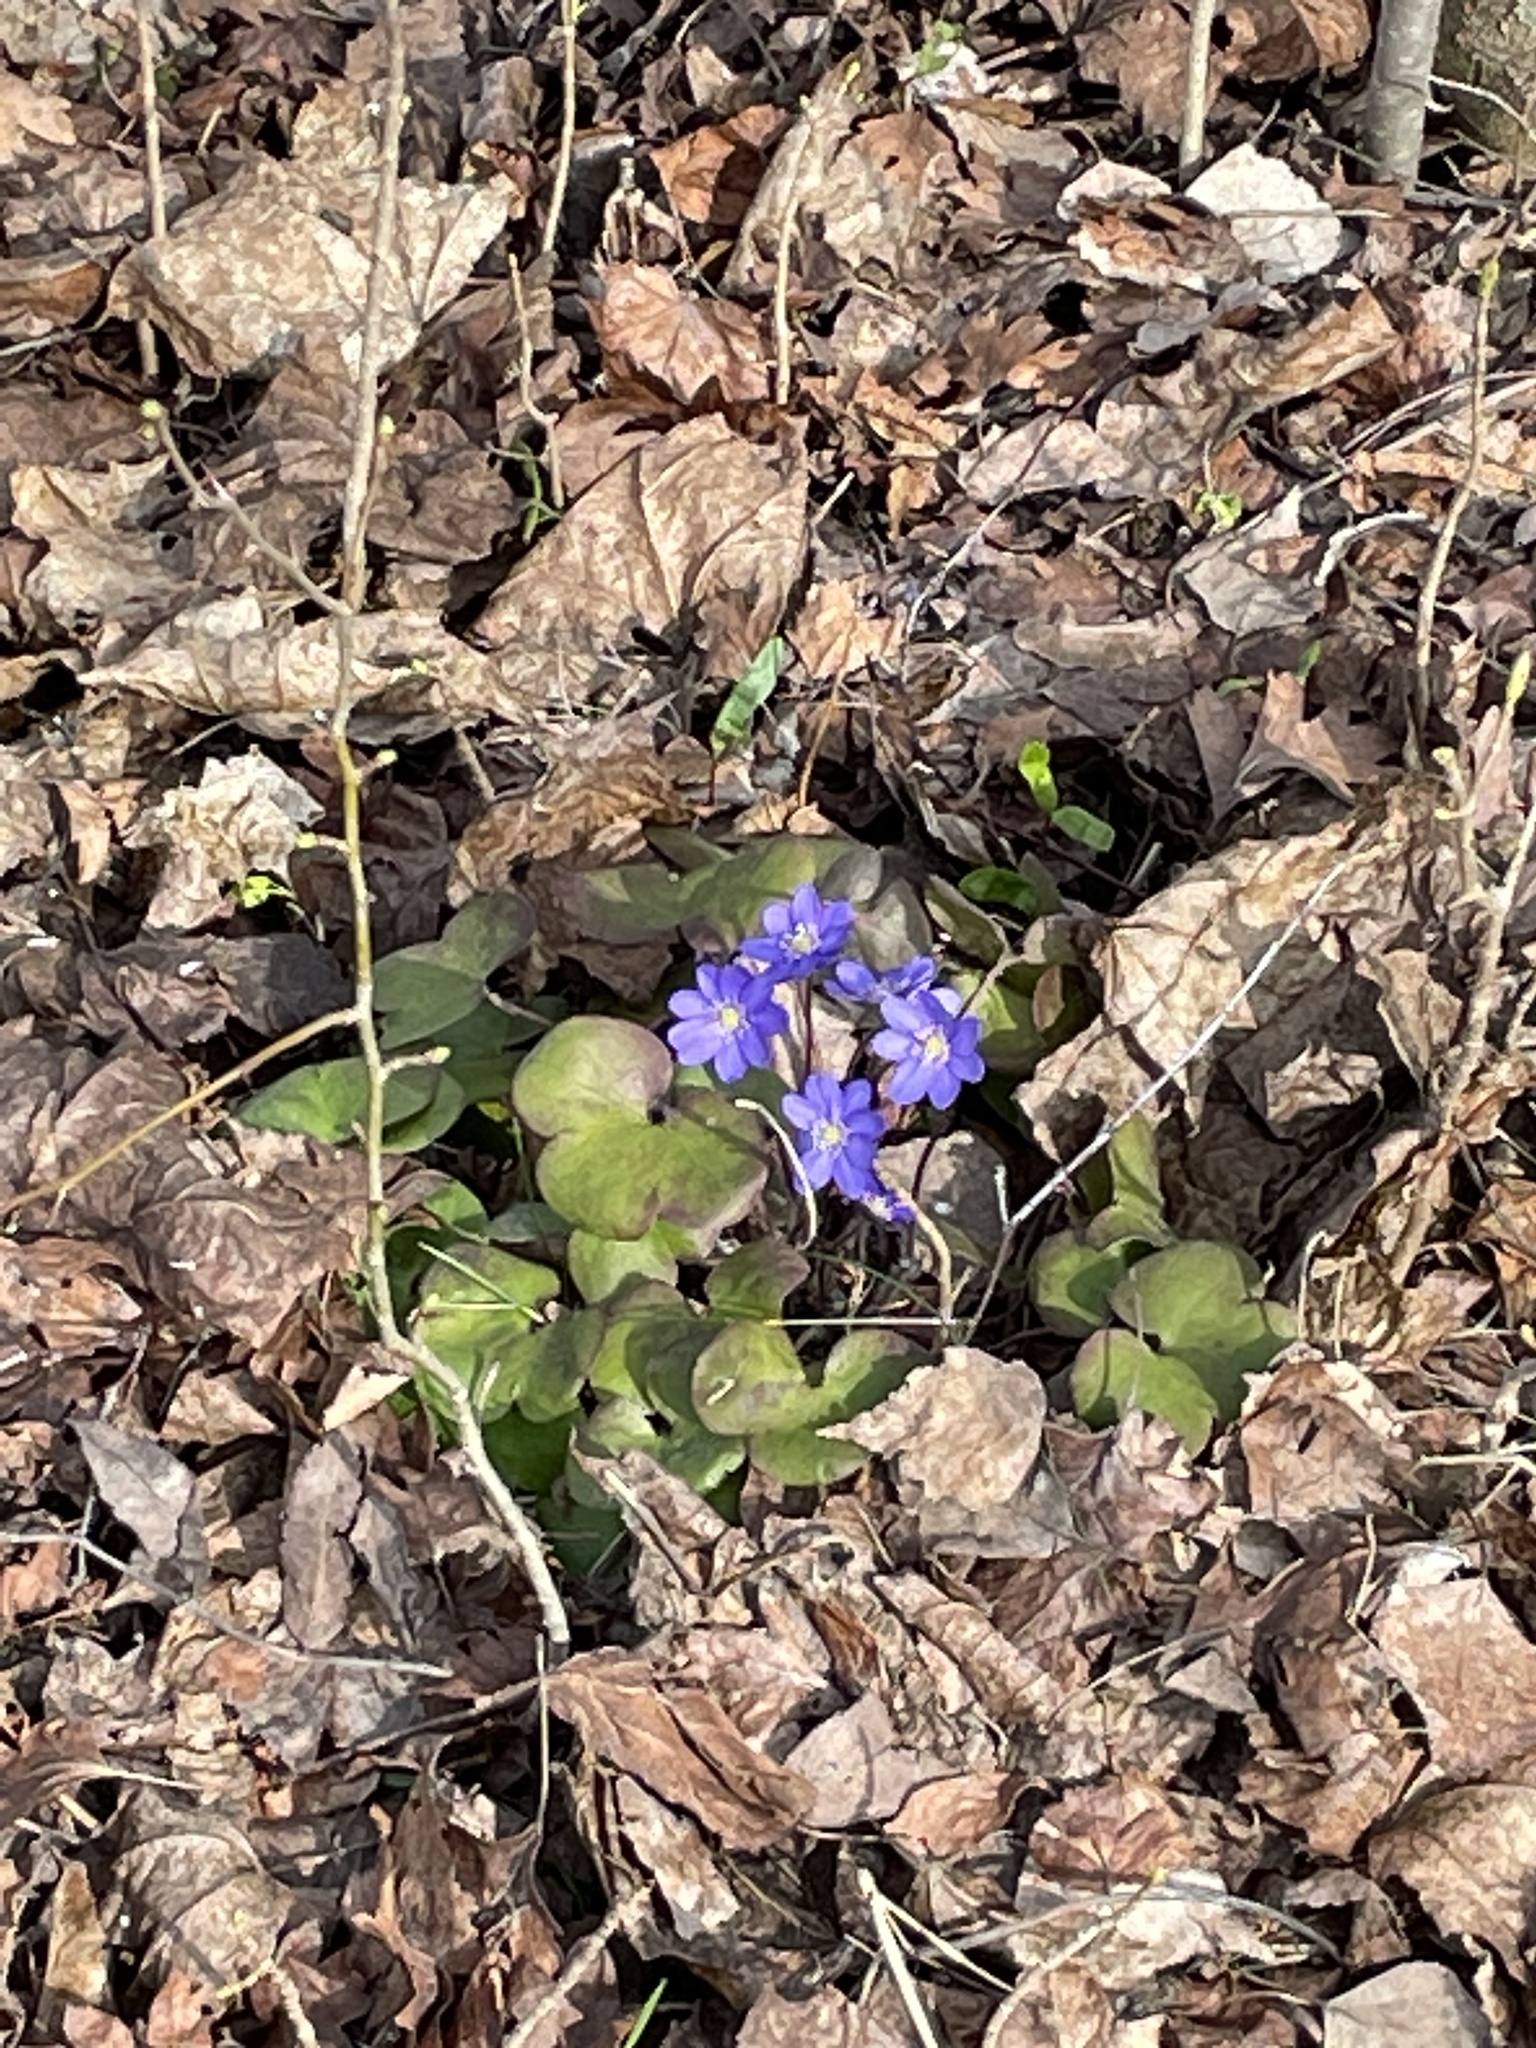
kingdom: Plantae
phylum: Tracheophyta
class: Magnoliopsida
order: Ranunculales
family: Ranunculaceae
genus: Hepatica
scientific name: Hepatica nobilis
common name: Liverleaf
